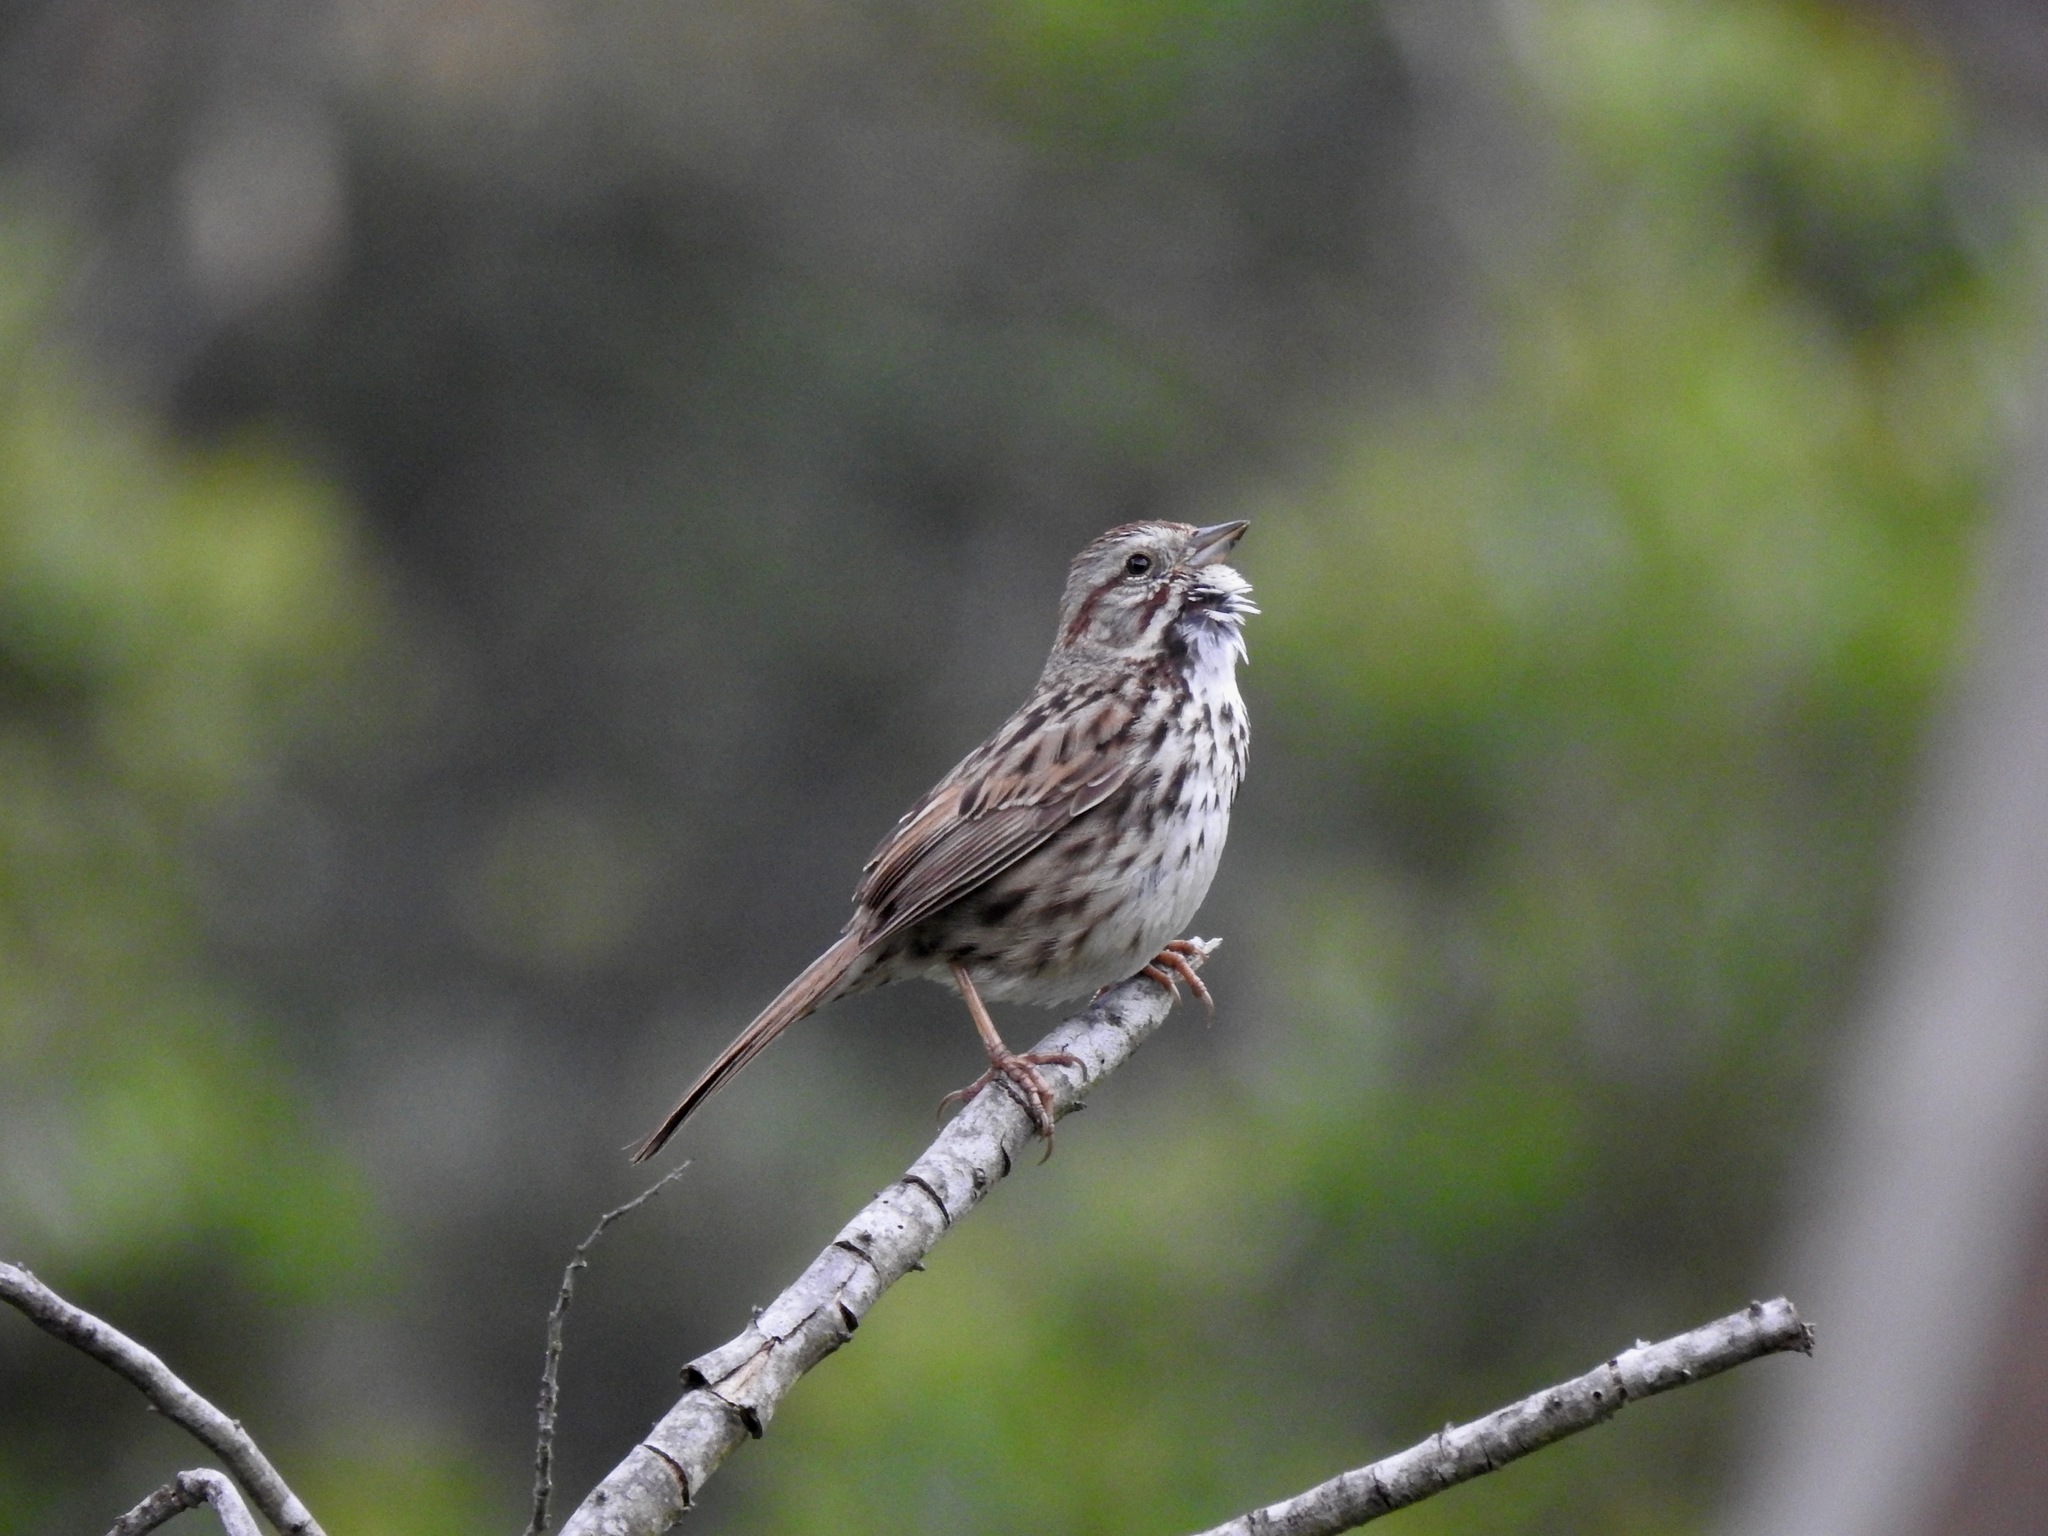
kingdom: Animalia
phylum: Chordata
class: Aves
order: Passeriformes
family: Passerellidae
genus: Melospiza
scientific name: Melospiza melodia
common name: Song sparrow
